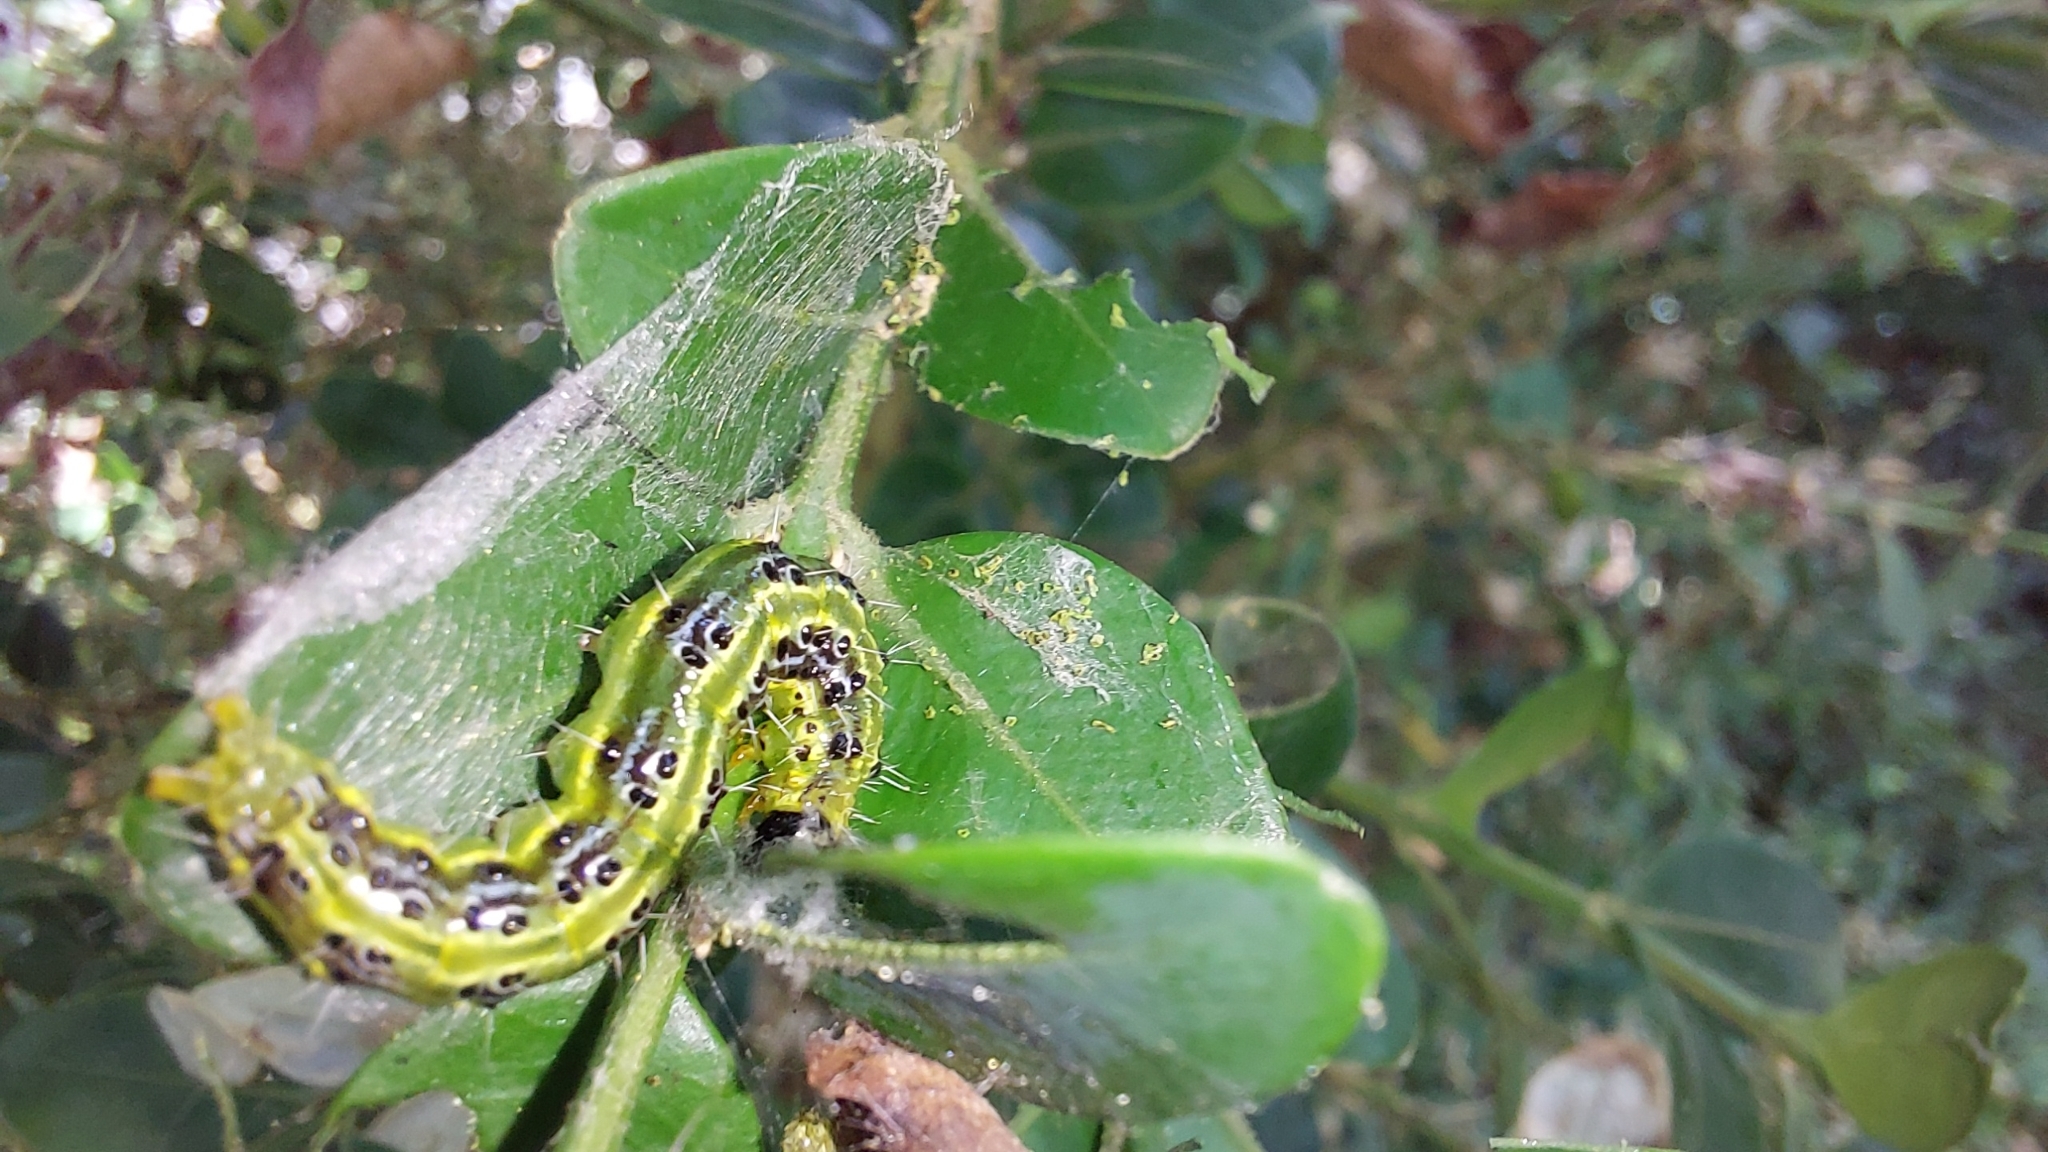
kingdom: Animalia
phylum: Arthropoda
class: Insecta
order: Lepidoptera
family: Crambidae
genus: Cydalima
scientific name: Cydalima perspectalis
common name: Box tree moth
